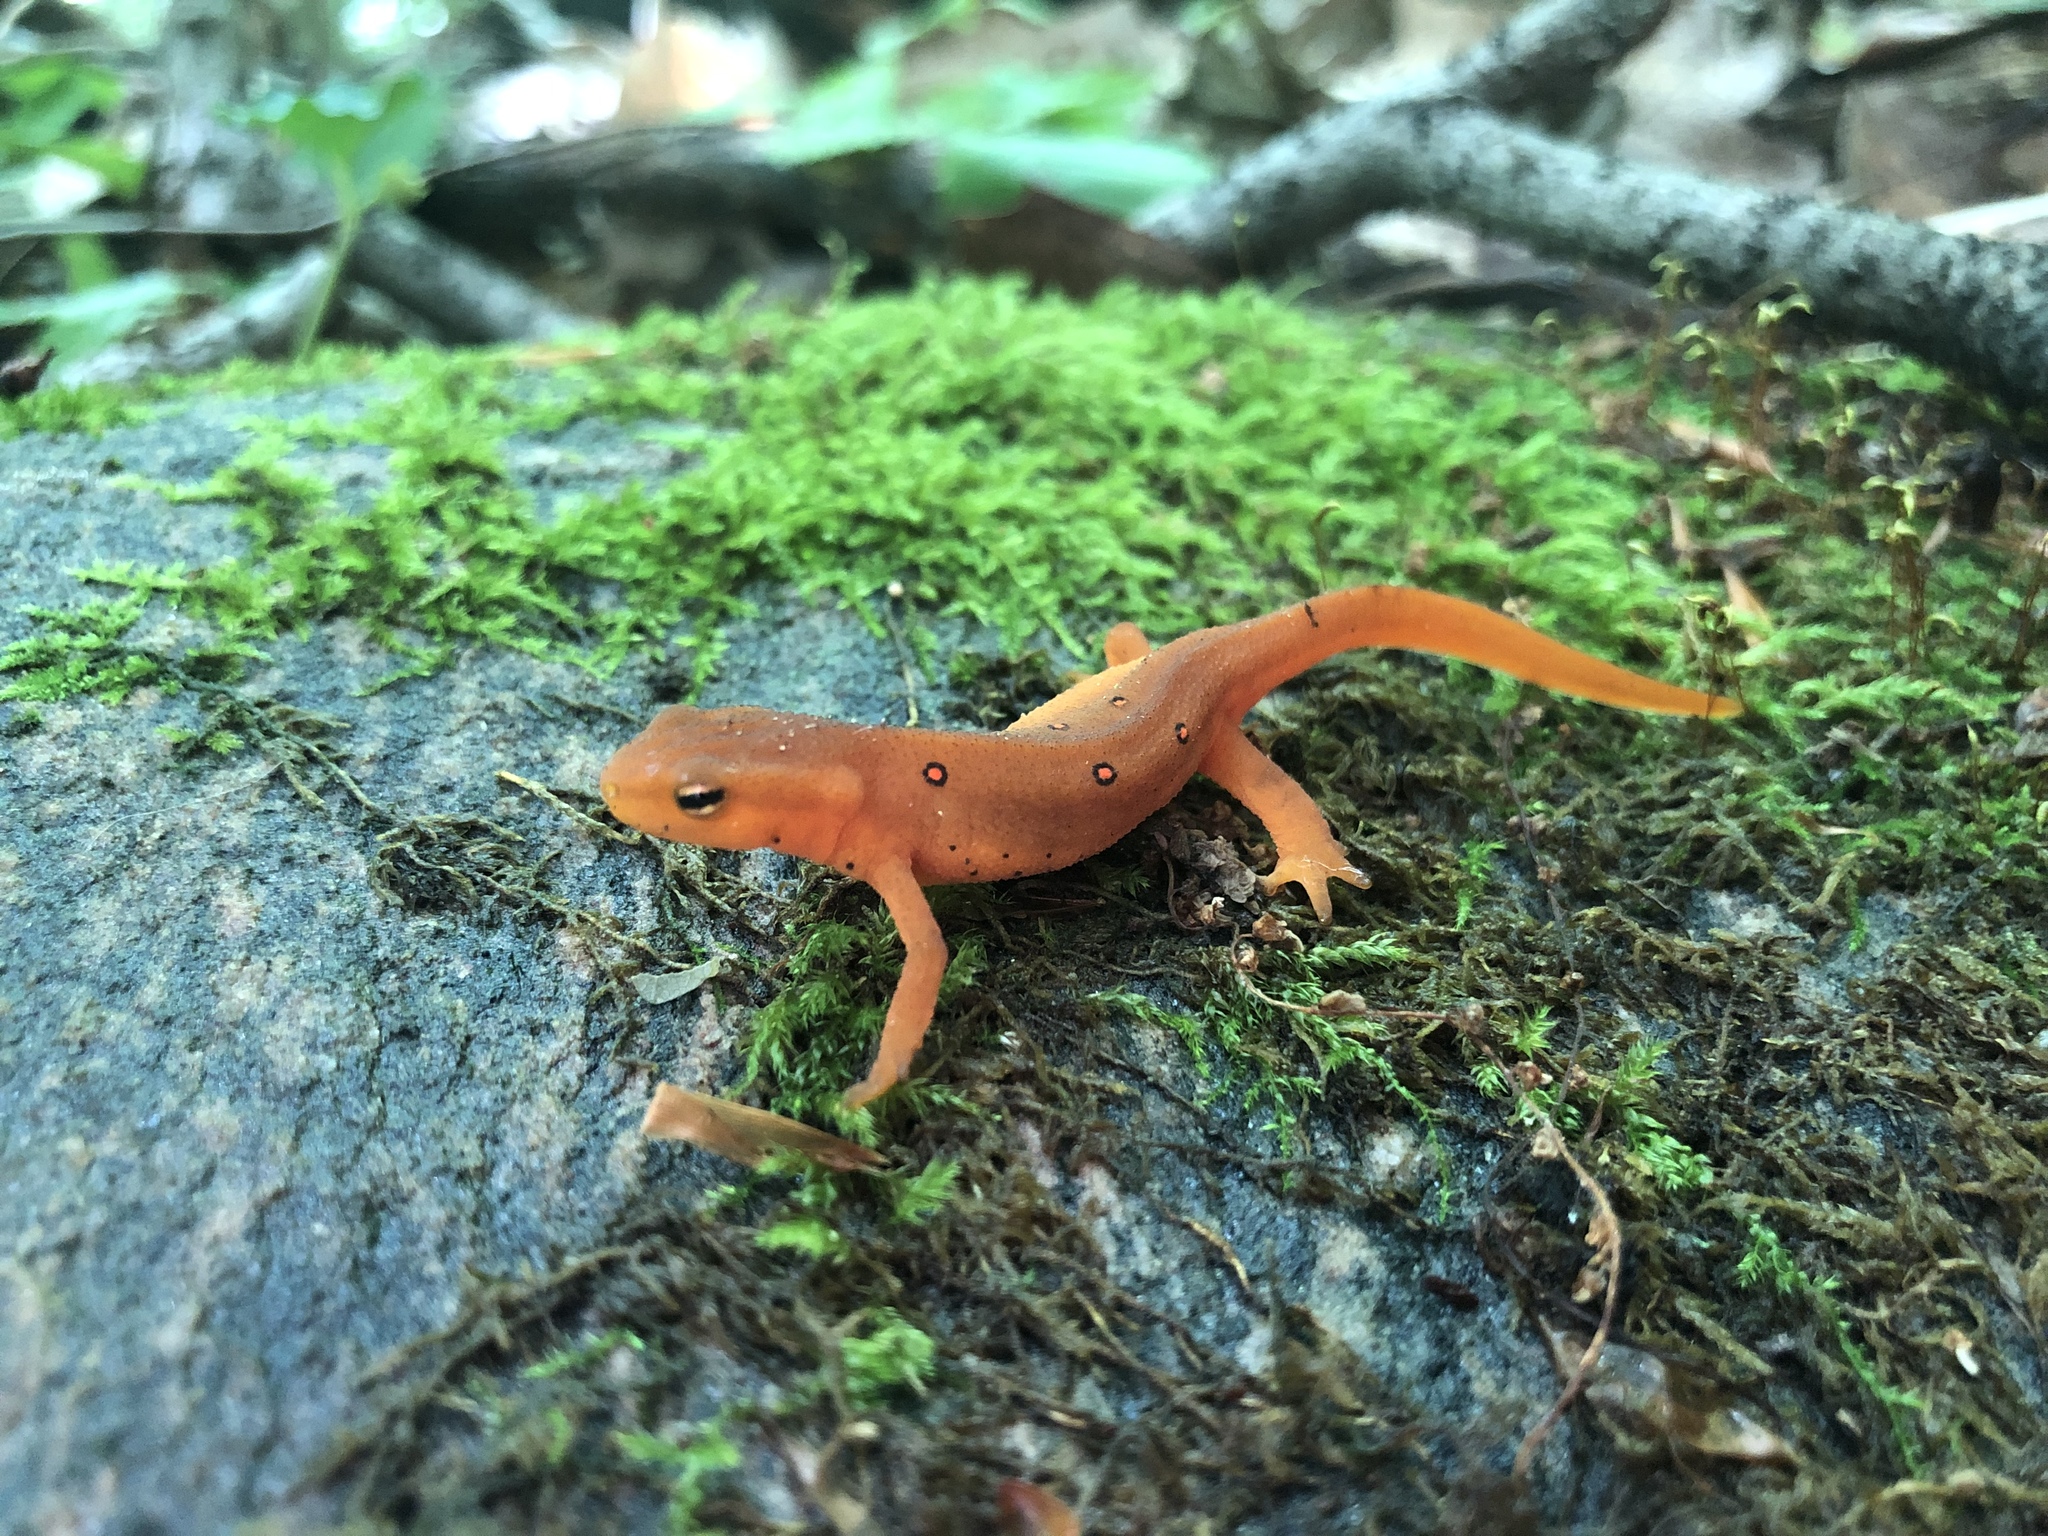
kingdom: Animalia
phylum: Chordata
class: Amphibia
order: Caudata
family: Salamandridae
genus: Notophthalmus
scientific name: Notophthalmus viridescens
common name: Eastern newt
